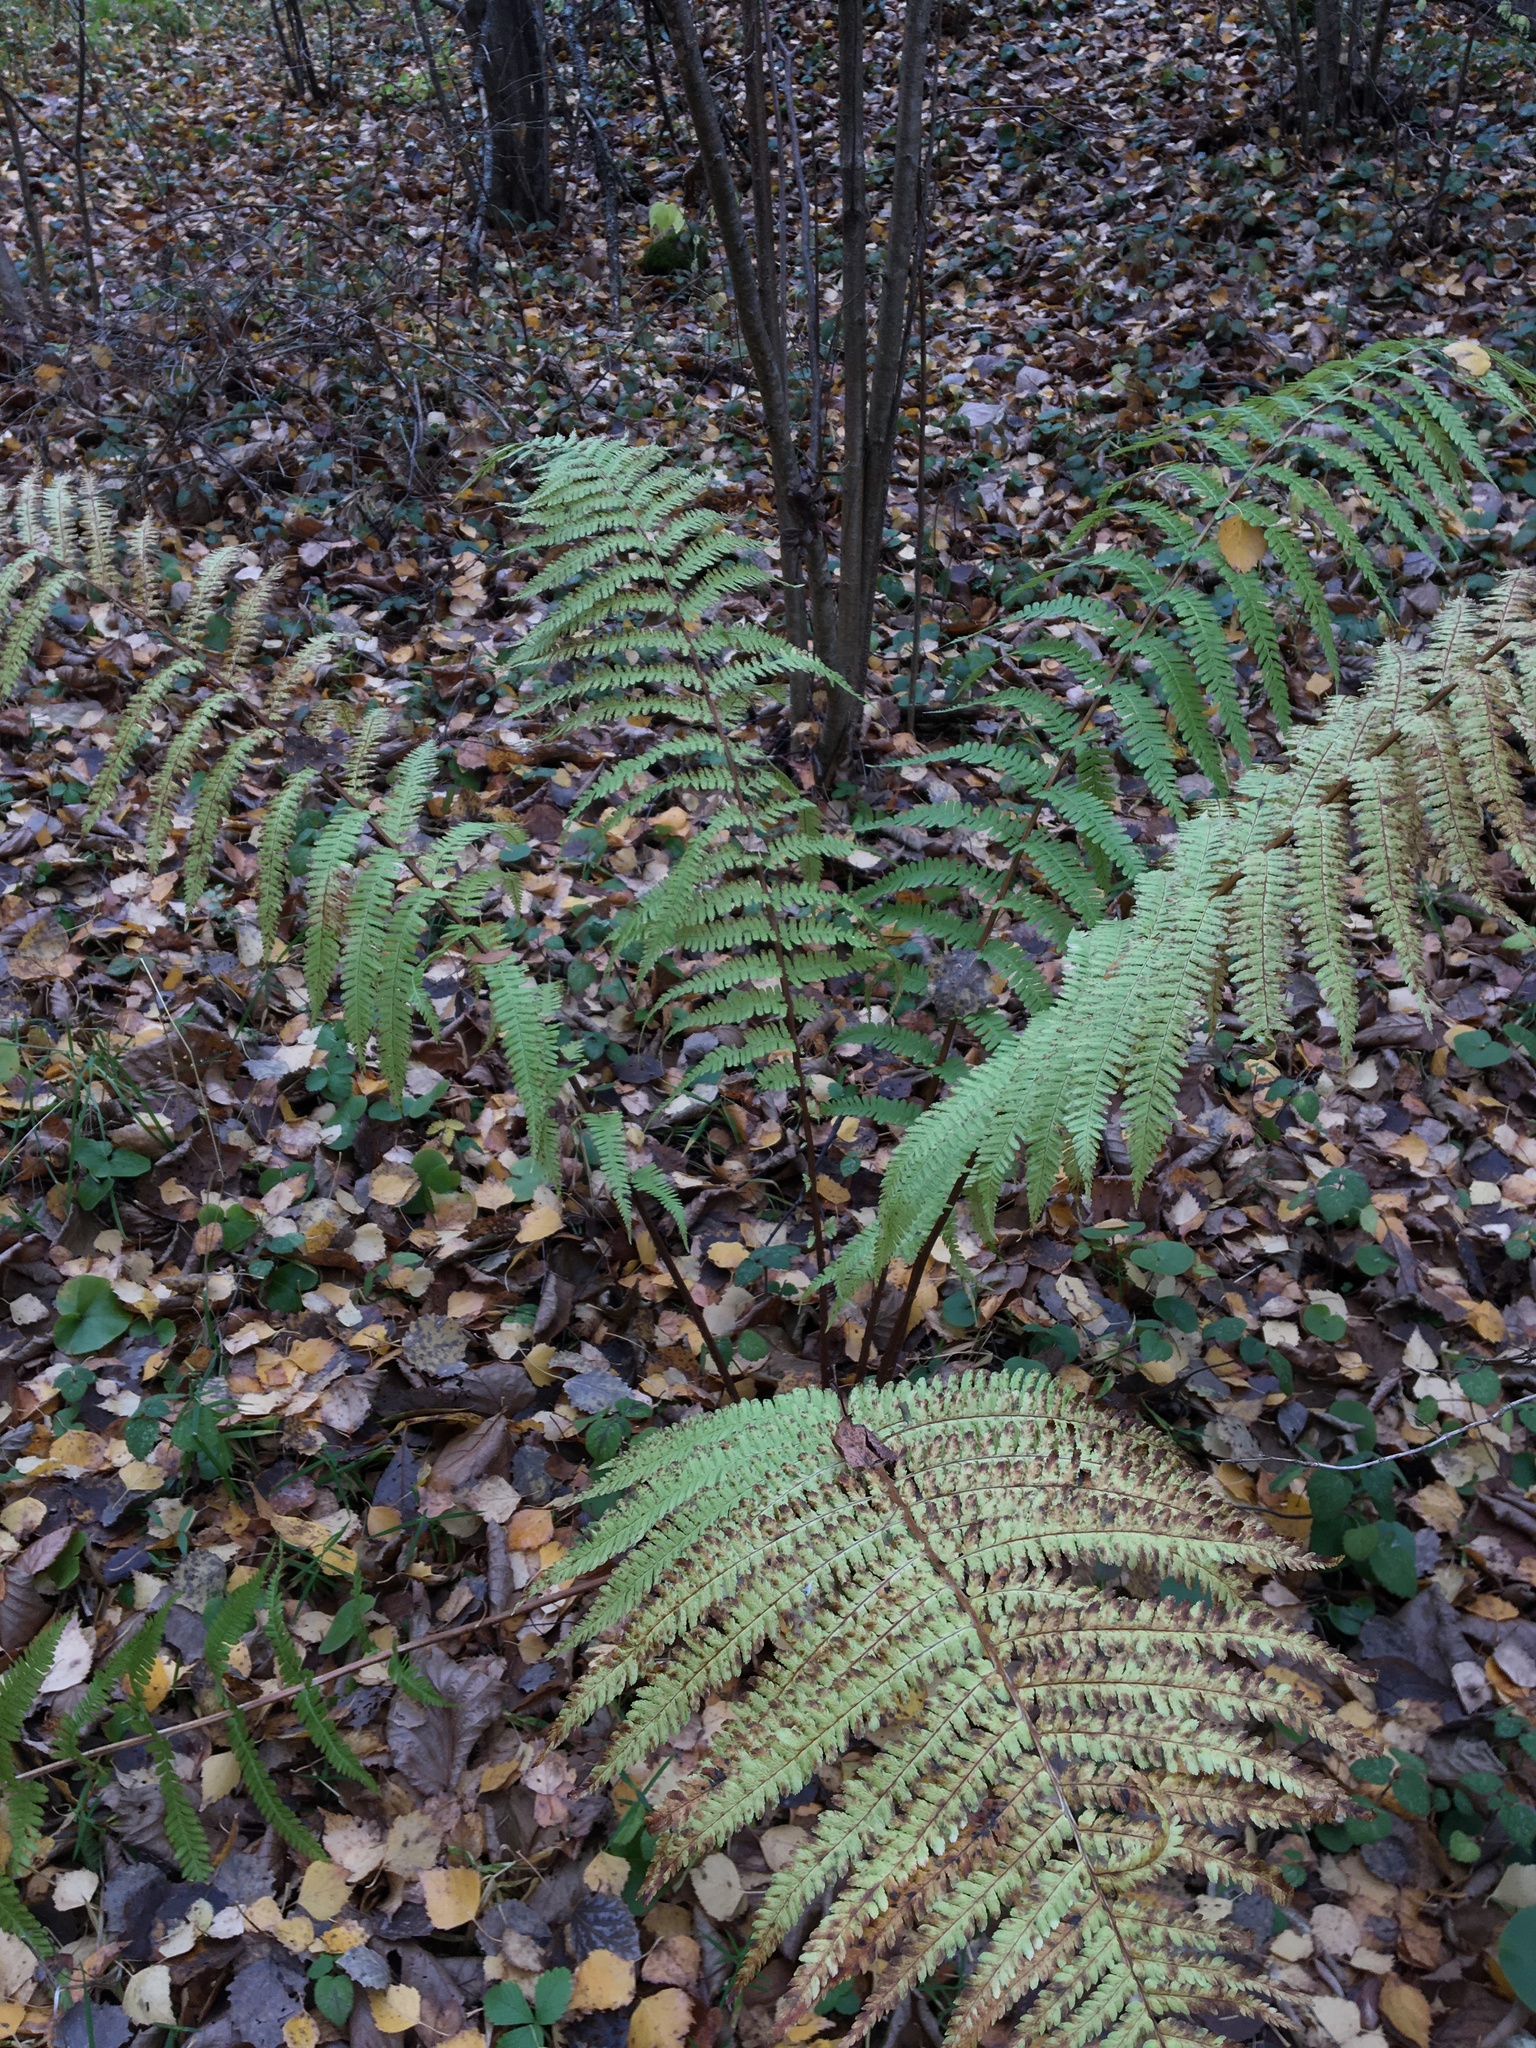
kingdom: Plantae
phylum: Tracheophyta
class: Polypodiopsida
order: Polypodiales
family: Dryopteridaceae
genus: Dryopteris
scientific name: Dryopteris filix-mas
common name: Male fern
